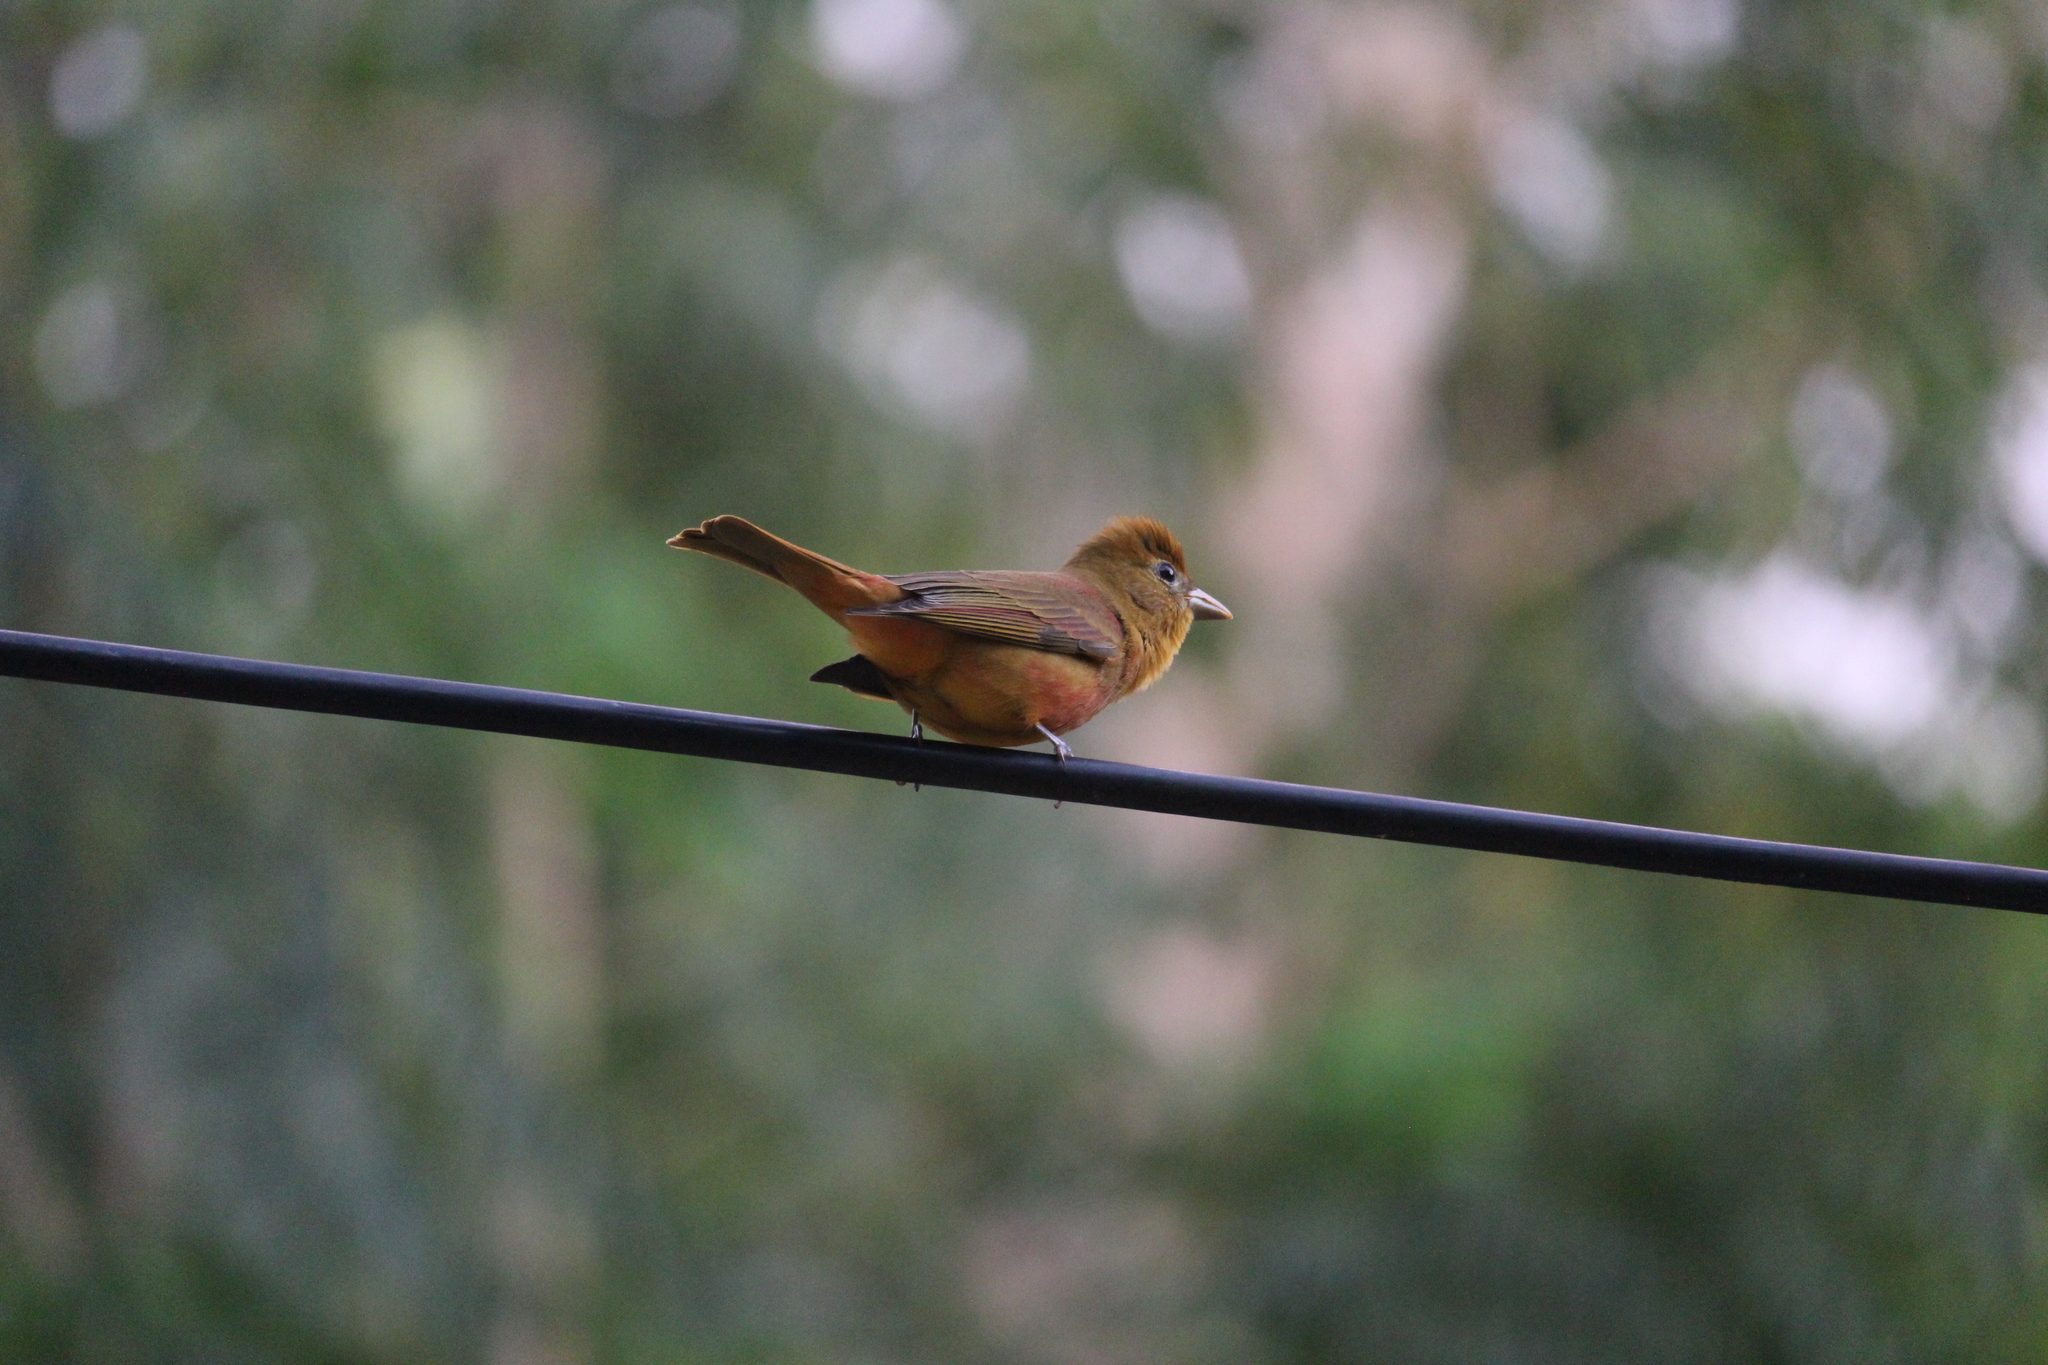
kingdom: Animalia
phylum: Chordata
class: Aves
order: Passeriformes
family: Cardinalidae
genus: Piranga
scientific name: Piranga rubra
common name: Summer tanager
